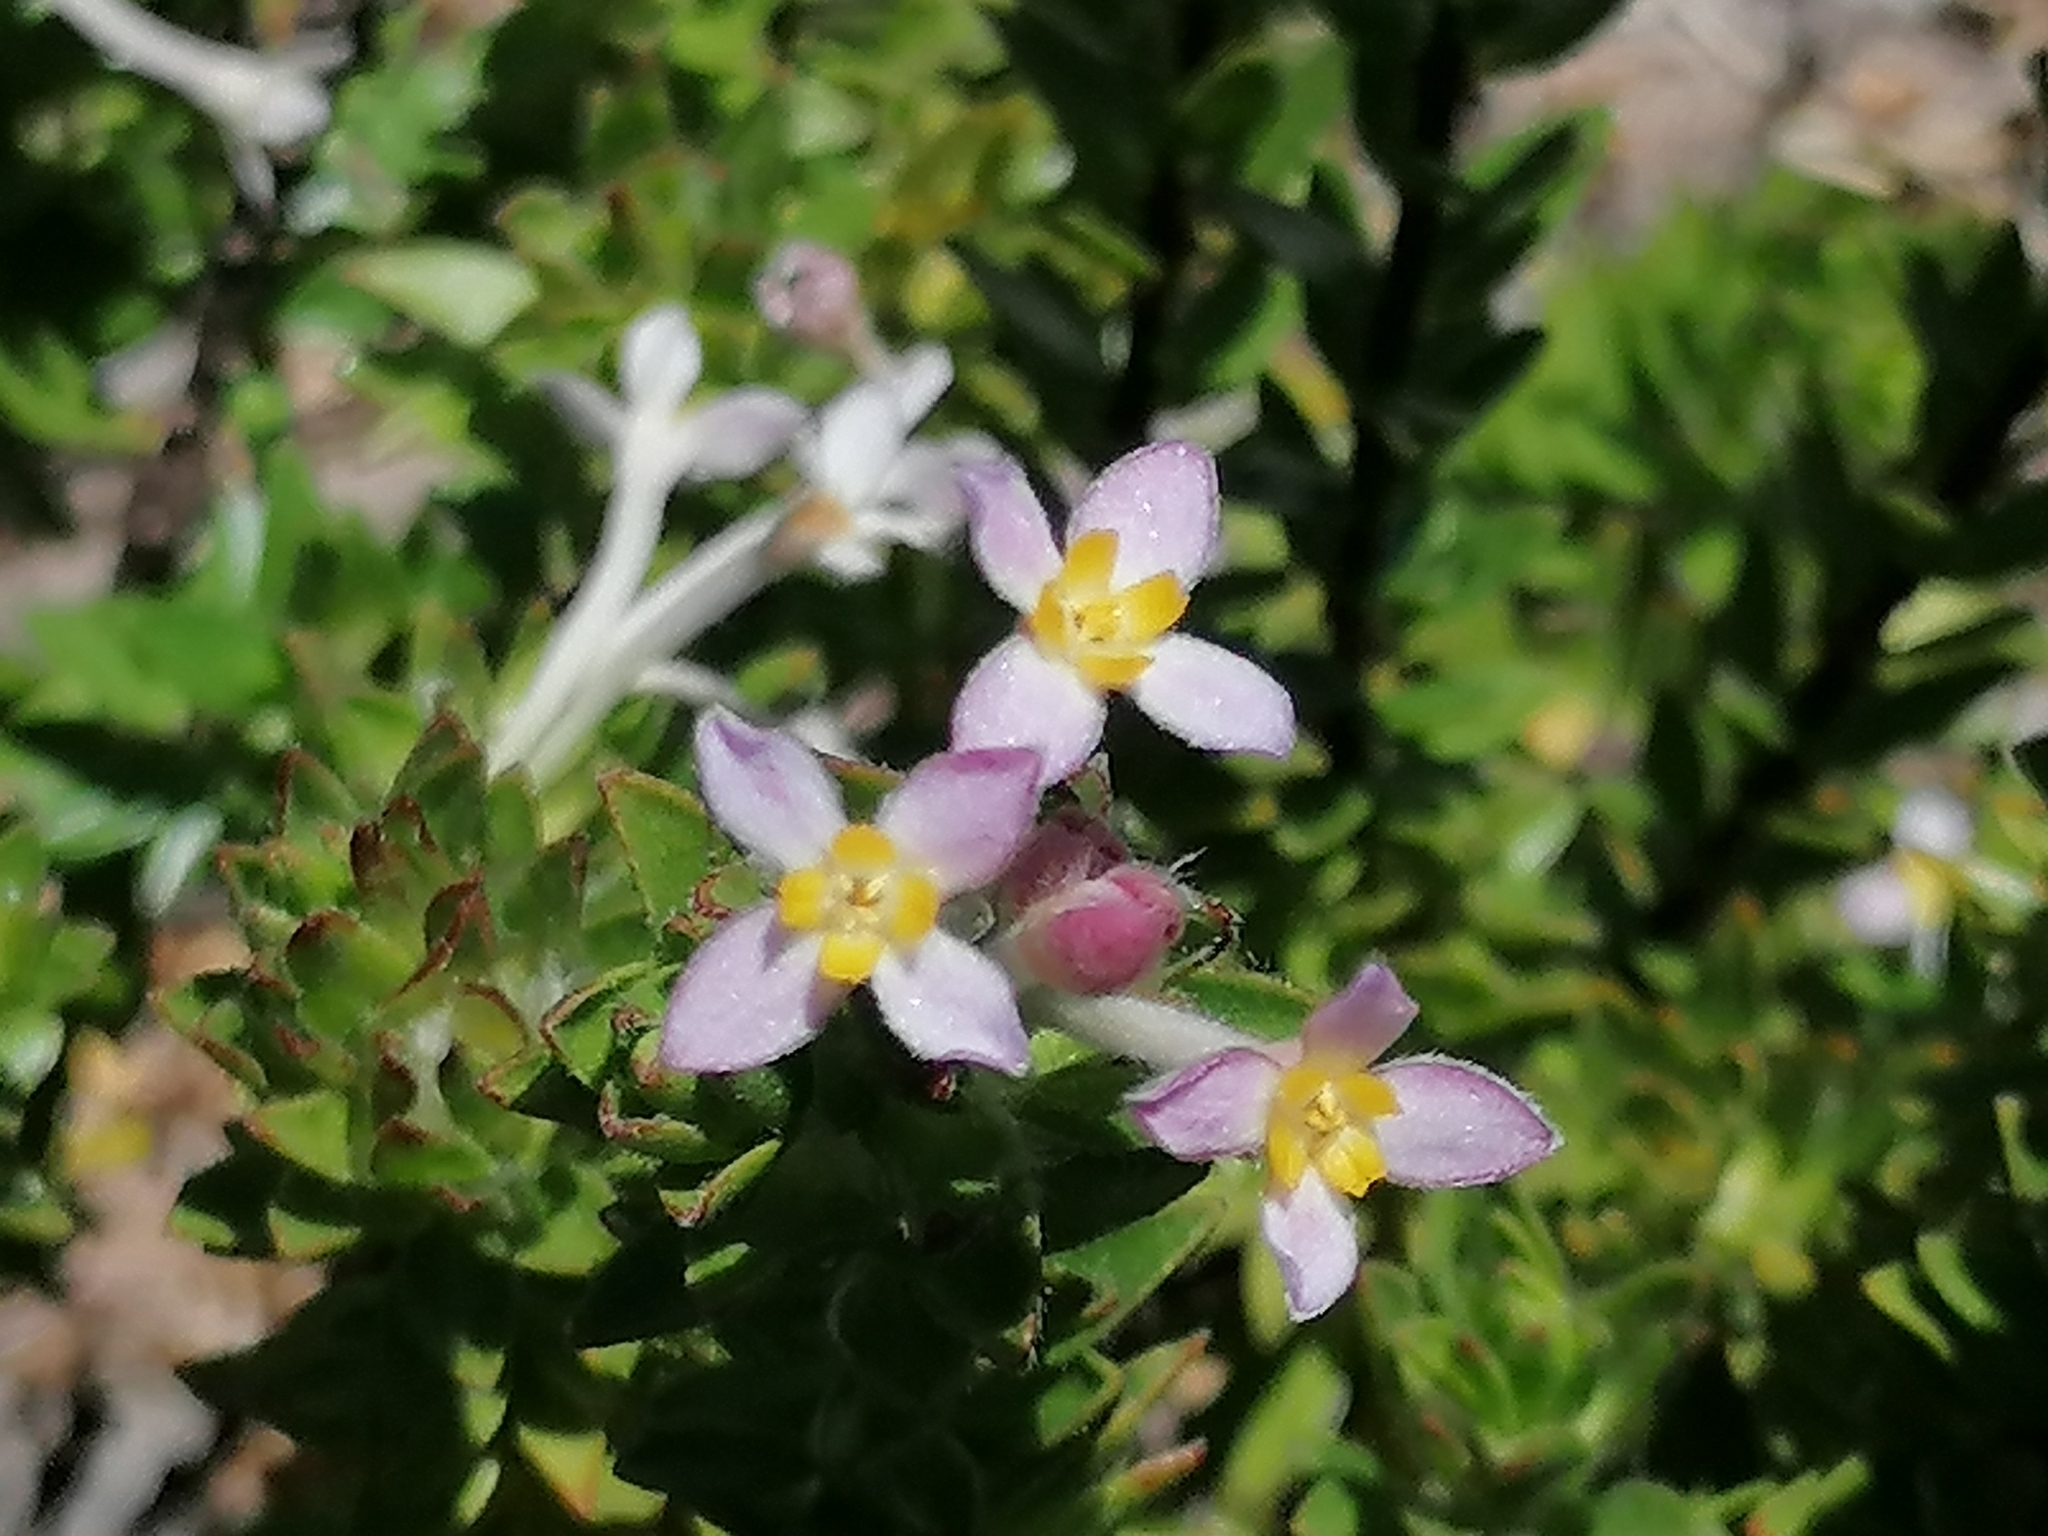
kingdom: Plantae
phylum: Tracheophyta
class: Magnoliopsida
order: Malvales
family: Thymelaeaceae
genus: Gnidia
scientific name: Gnidia tomentosa
